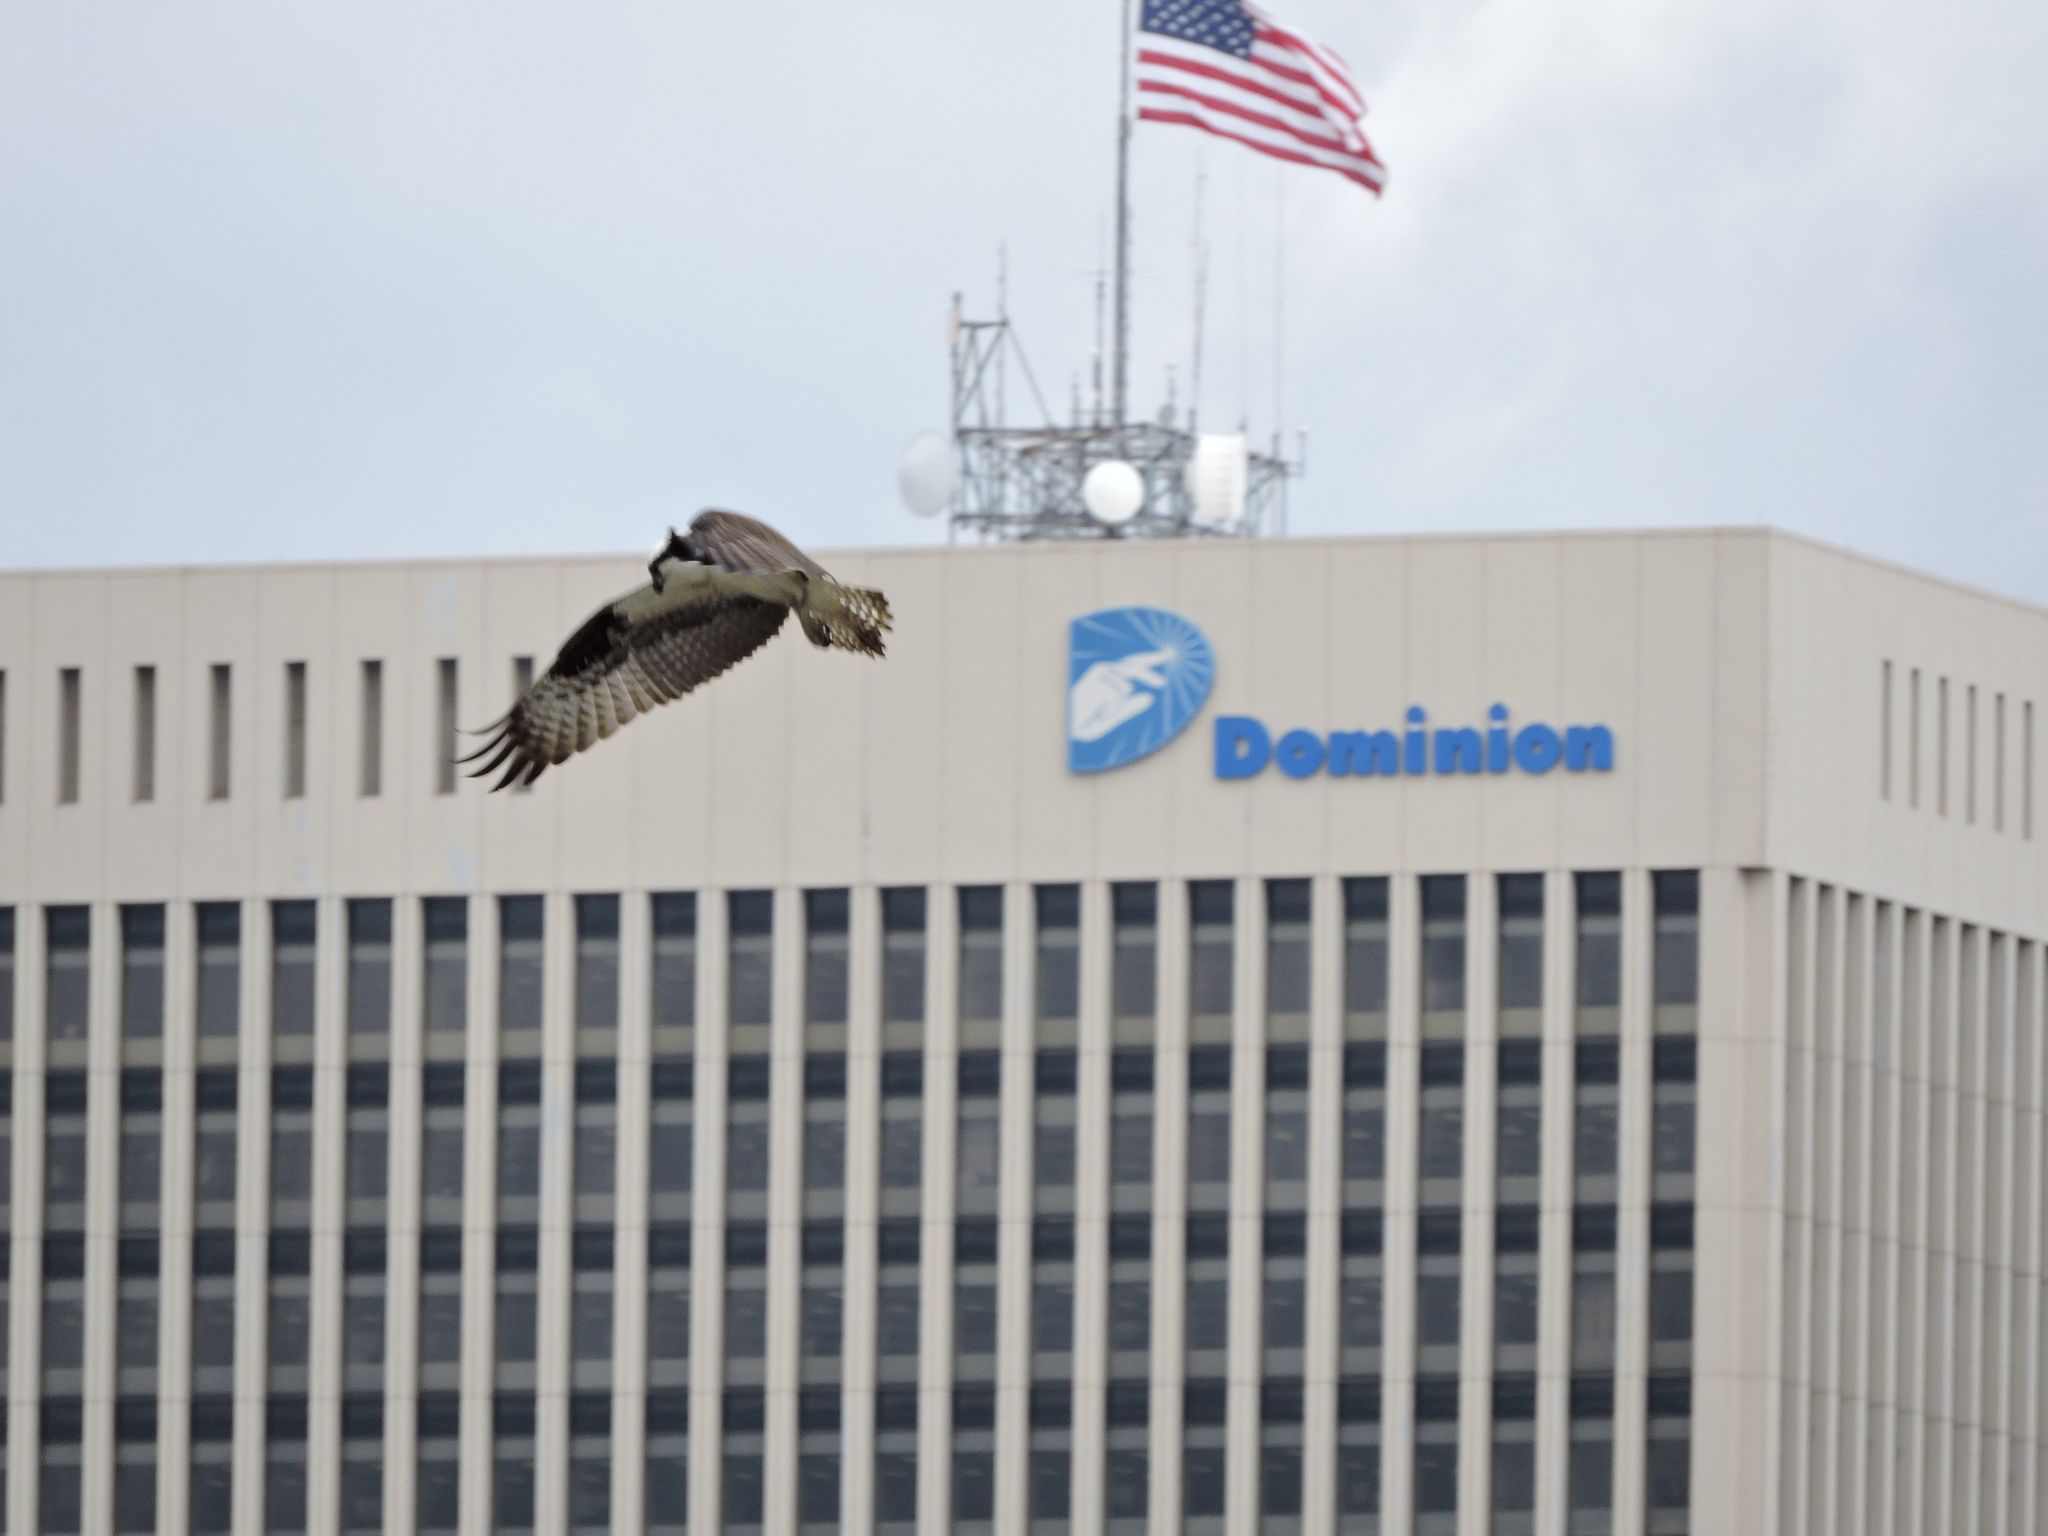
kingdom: Animalia
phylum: Chordata
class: Aves
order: Accipitriformes
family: Pandionidae
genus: Pandion
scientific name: Pandion haliaetus
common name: Osprey
